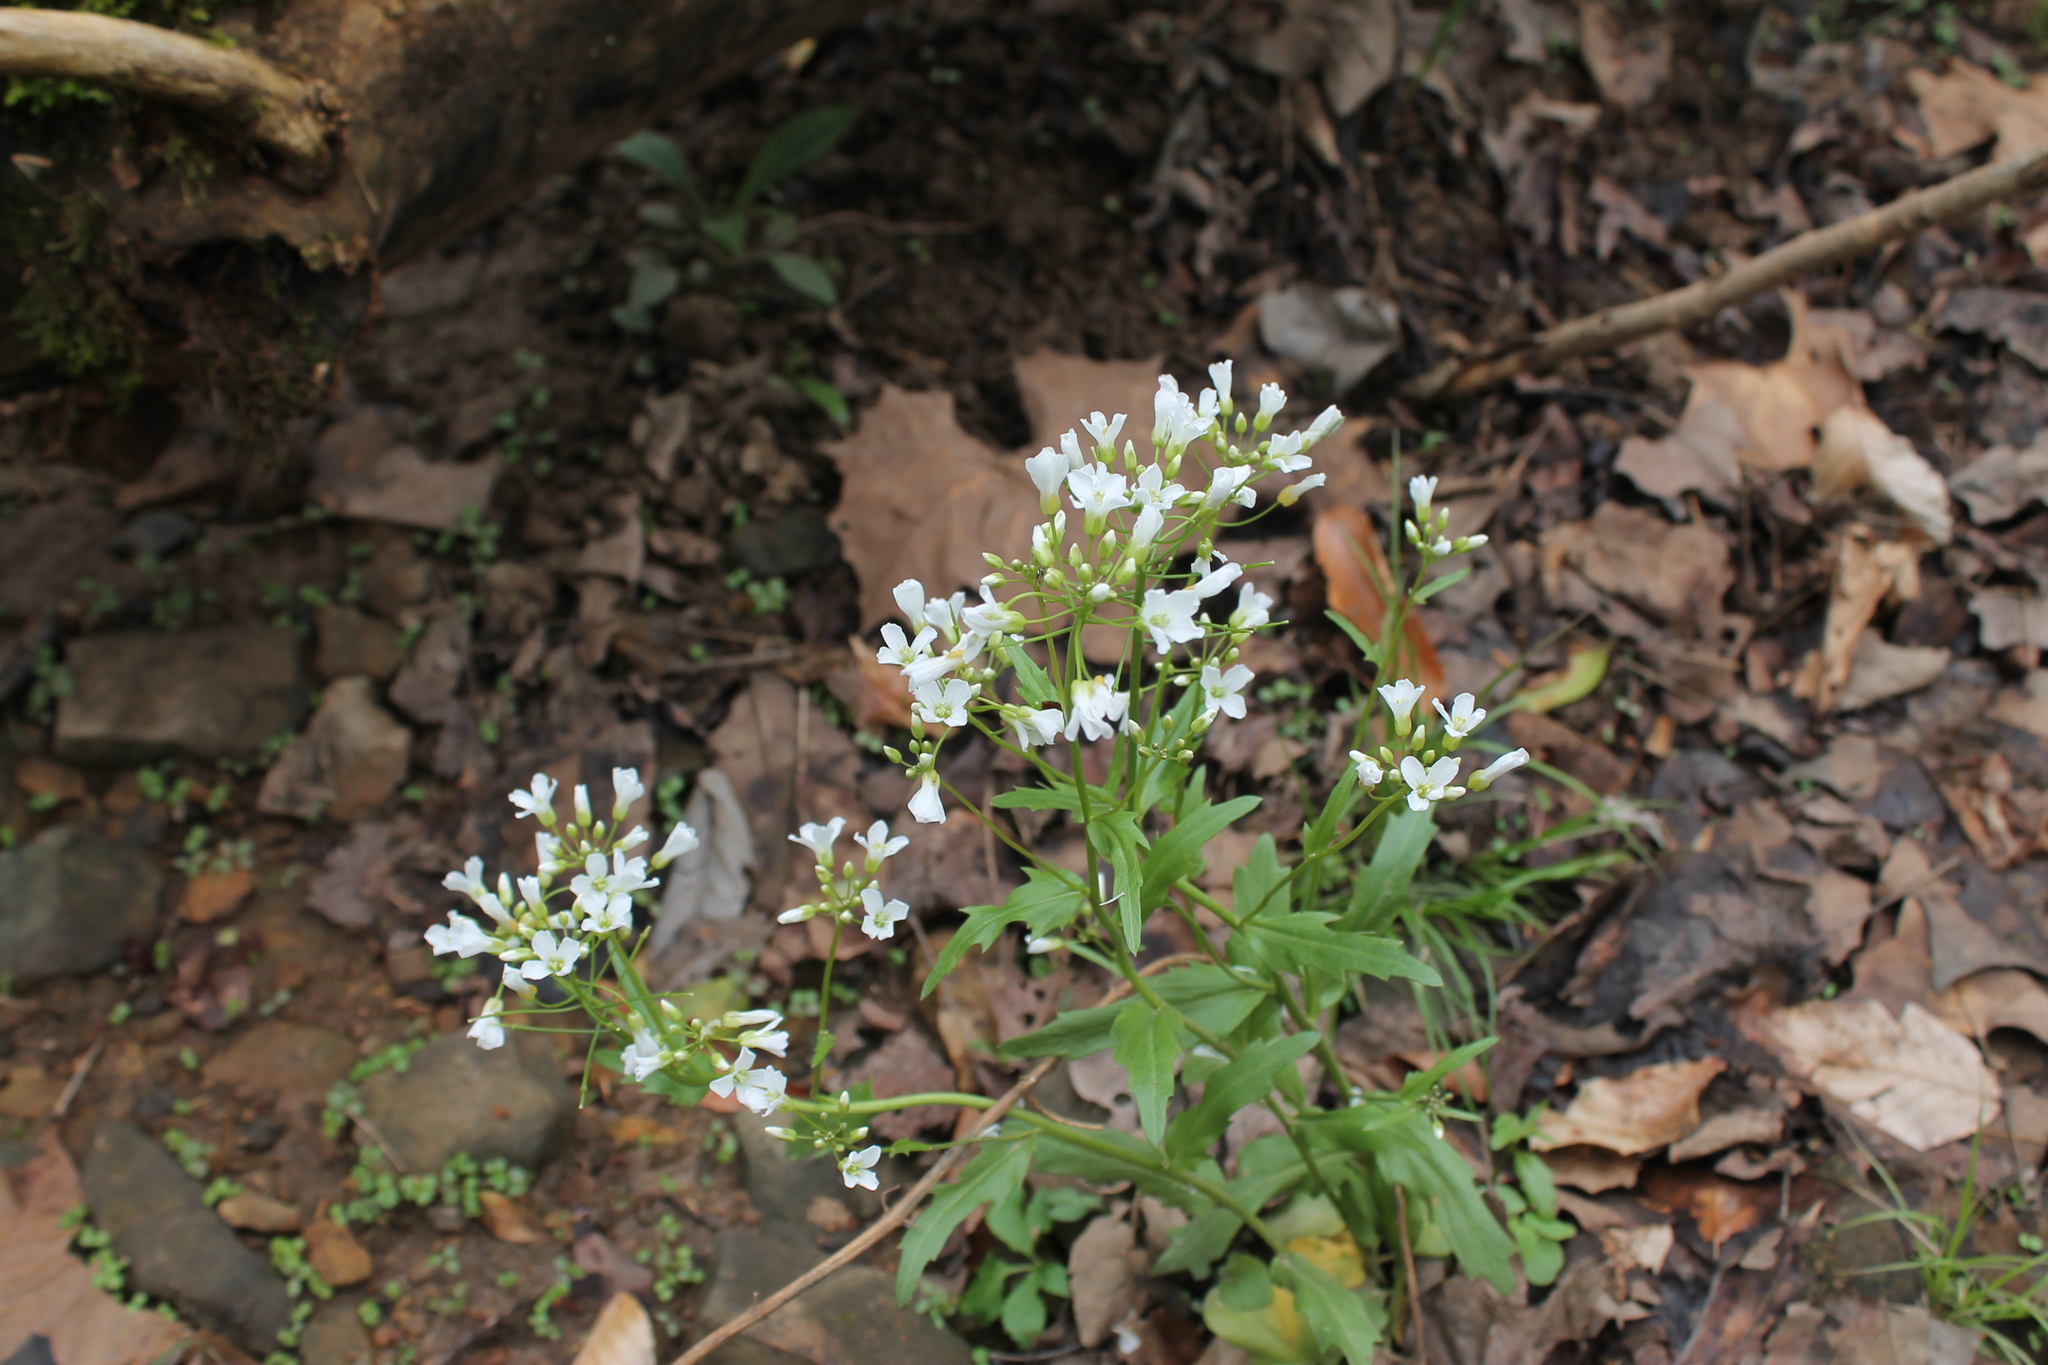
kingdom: Plantae
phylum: Tracheophyta
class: Magnoliopsida
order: Brassicales
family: Brassicaceae
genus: Cardamine
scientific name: Cardamine bulbosa
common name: Spring cress
